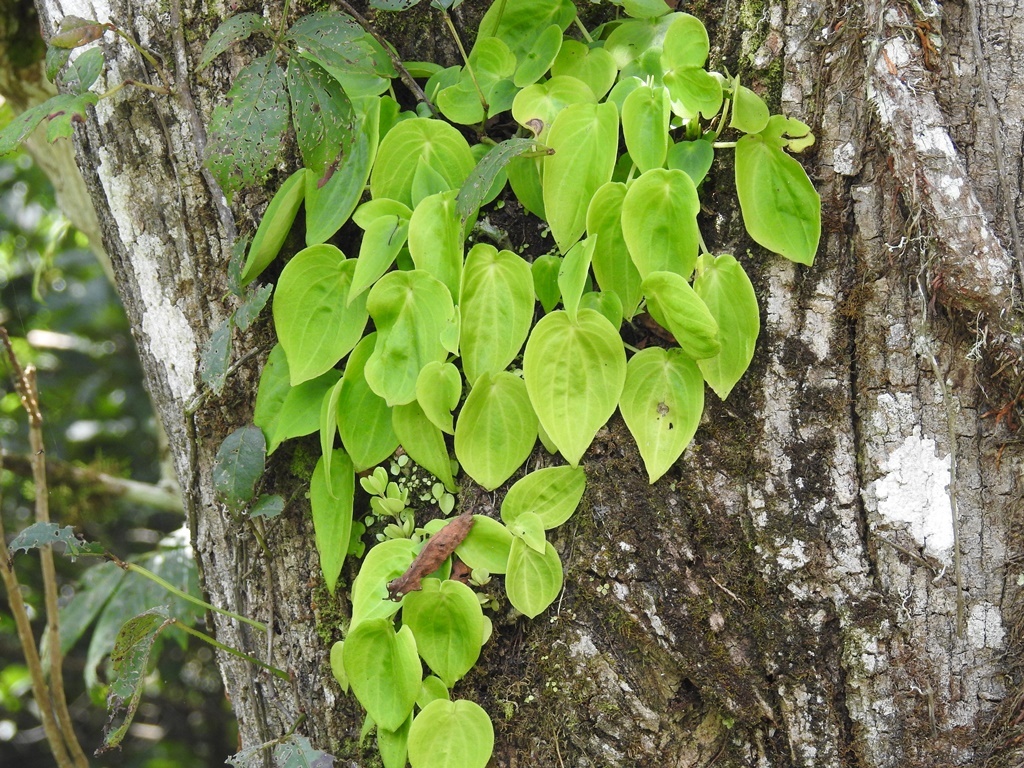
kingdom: Plantae
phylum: Tracheophyta
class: Magnoliopsida
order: Piperales
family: Piperaceae
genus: Peperomia
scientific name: Peperomia lanceolatopeltata
